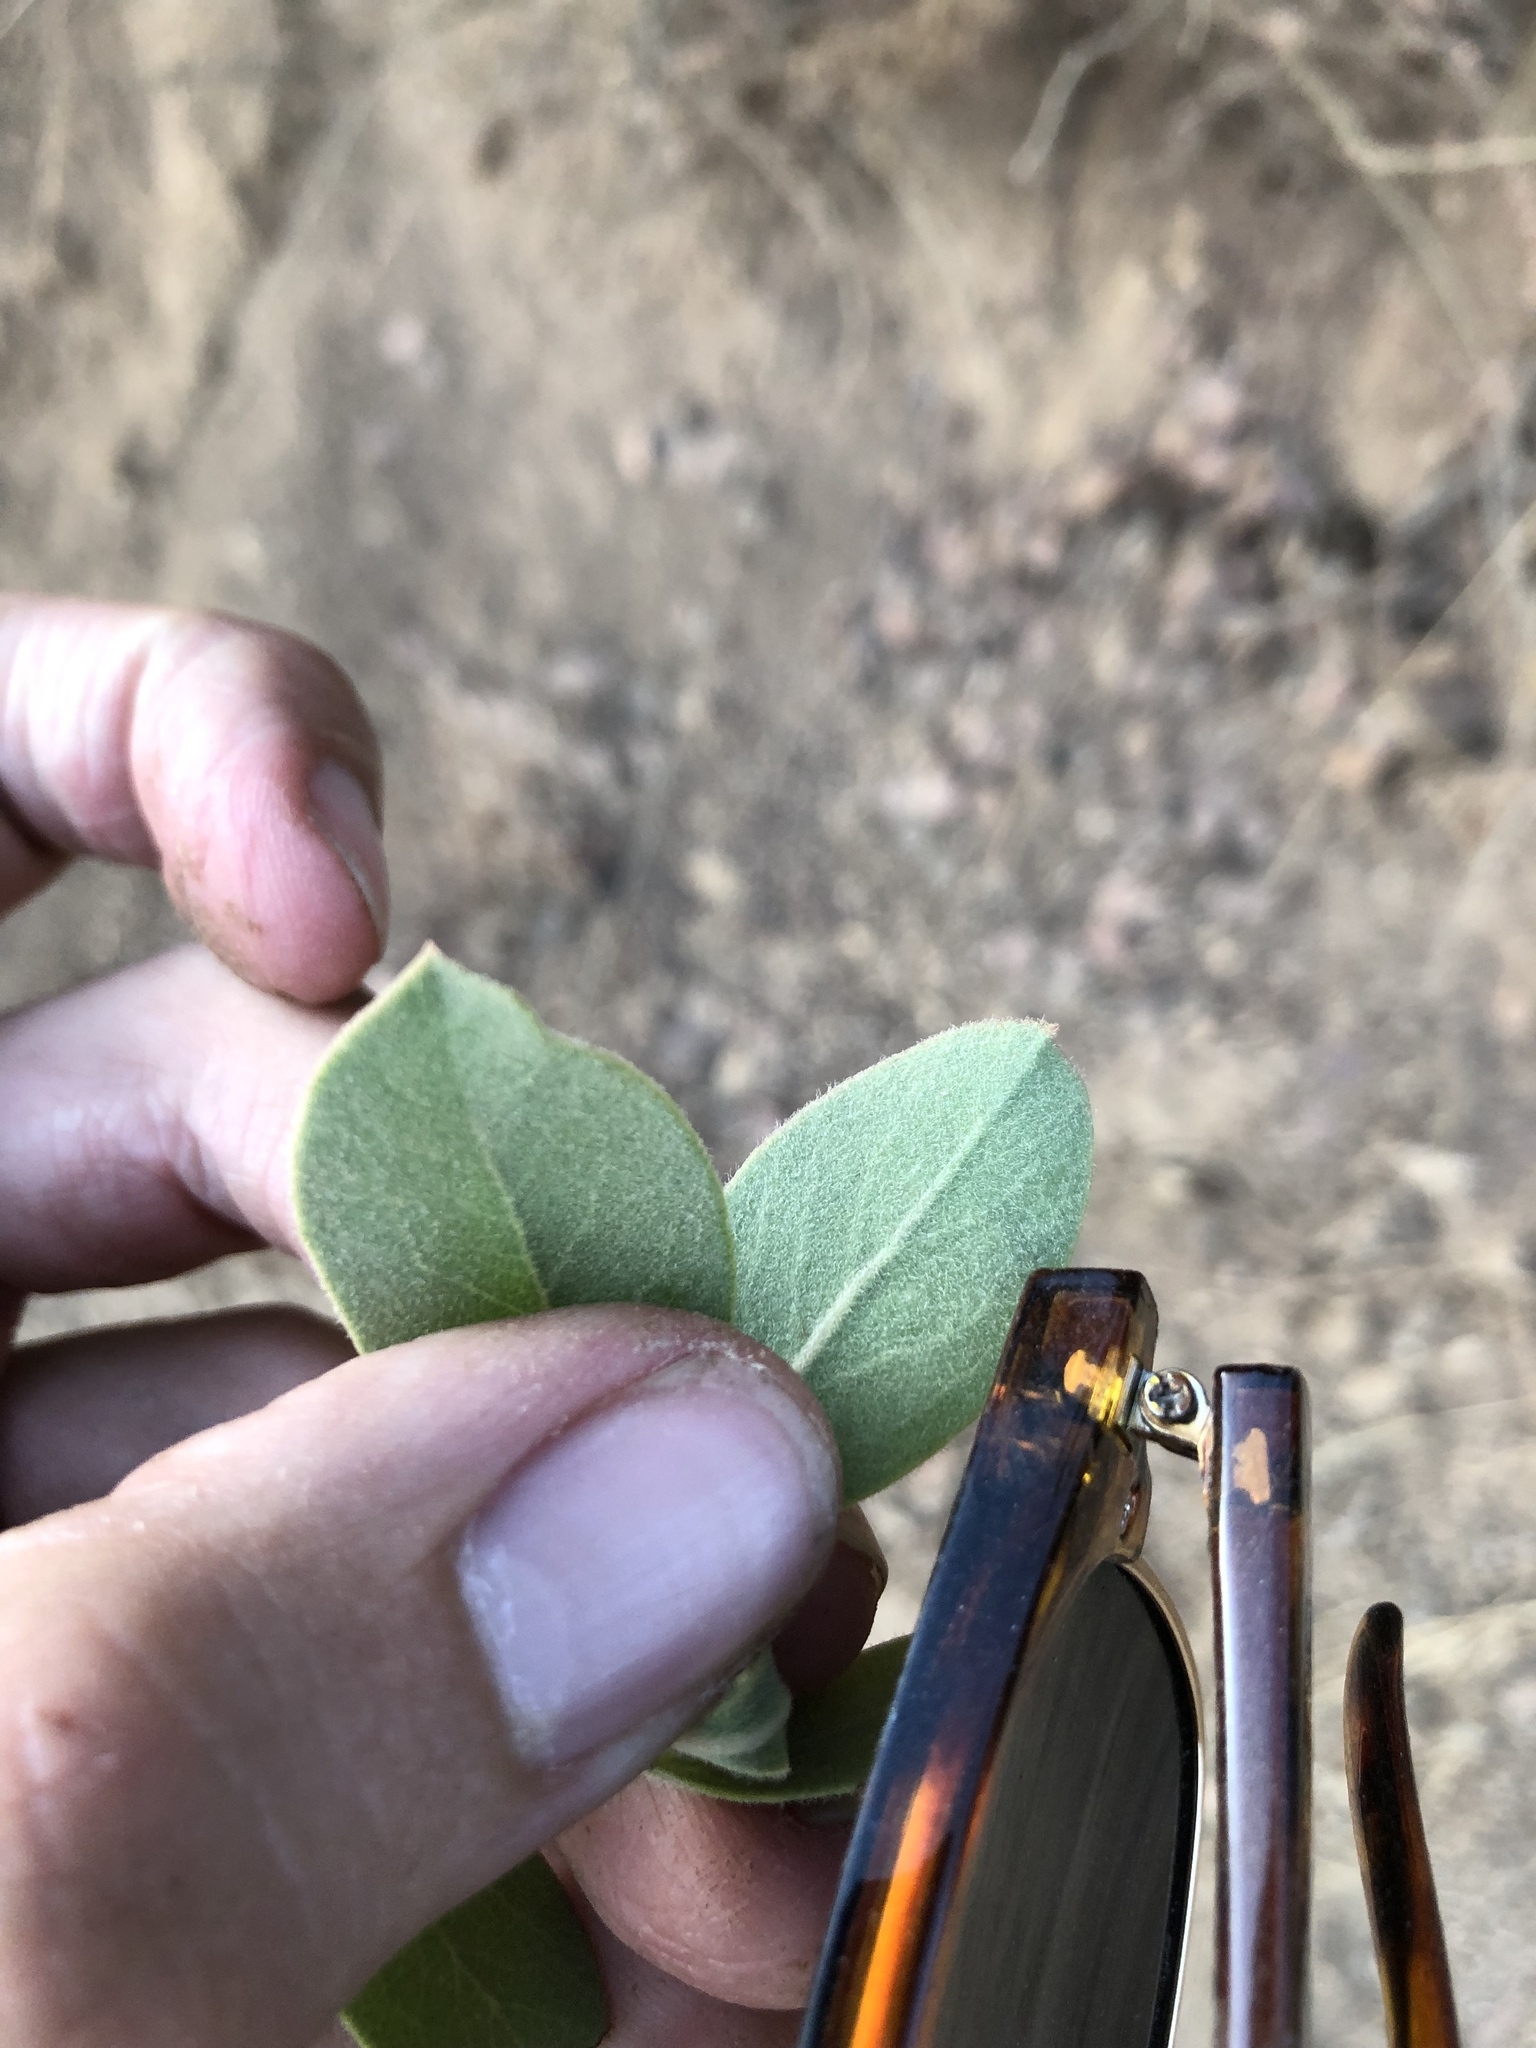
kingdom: Plantae
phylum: Tracheophyta
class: Magnoliopsida
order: Ericales
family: Ericaceae
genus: Arctostaphylos
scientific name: Arctostaphylos glandulosa
